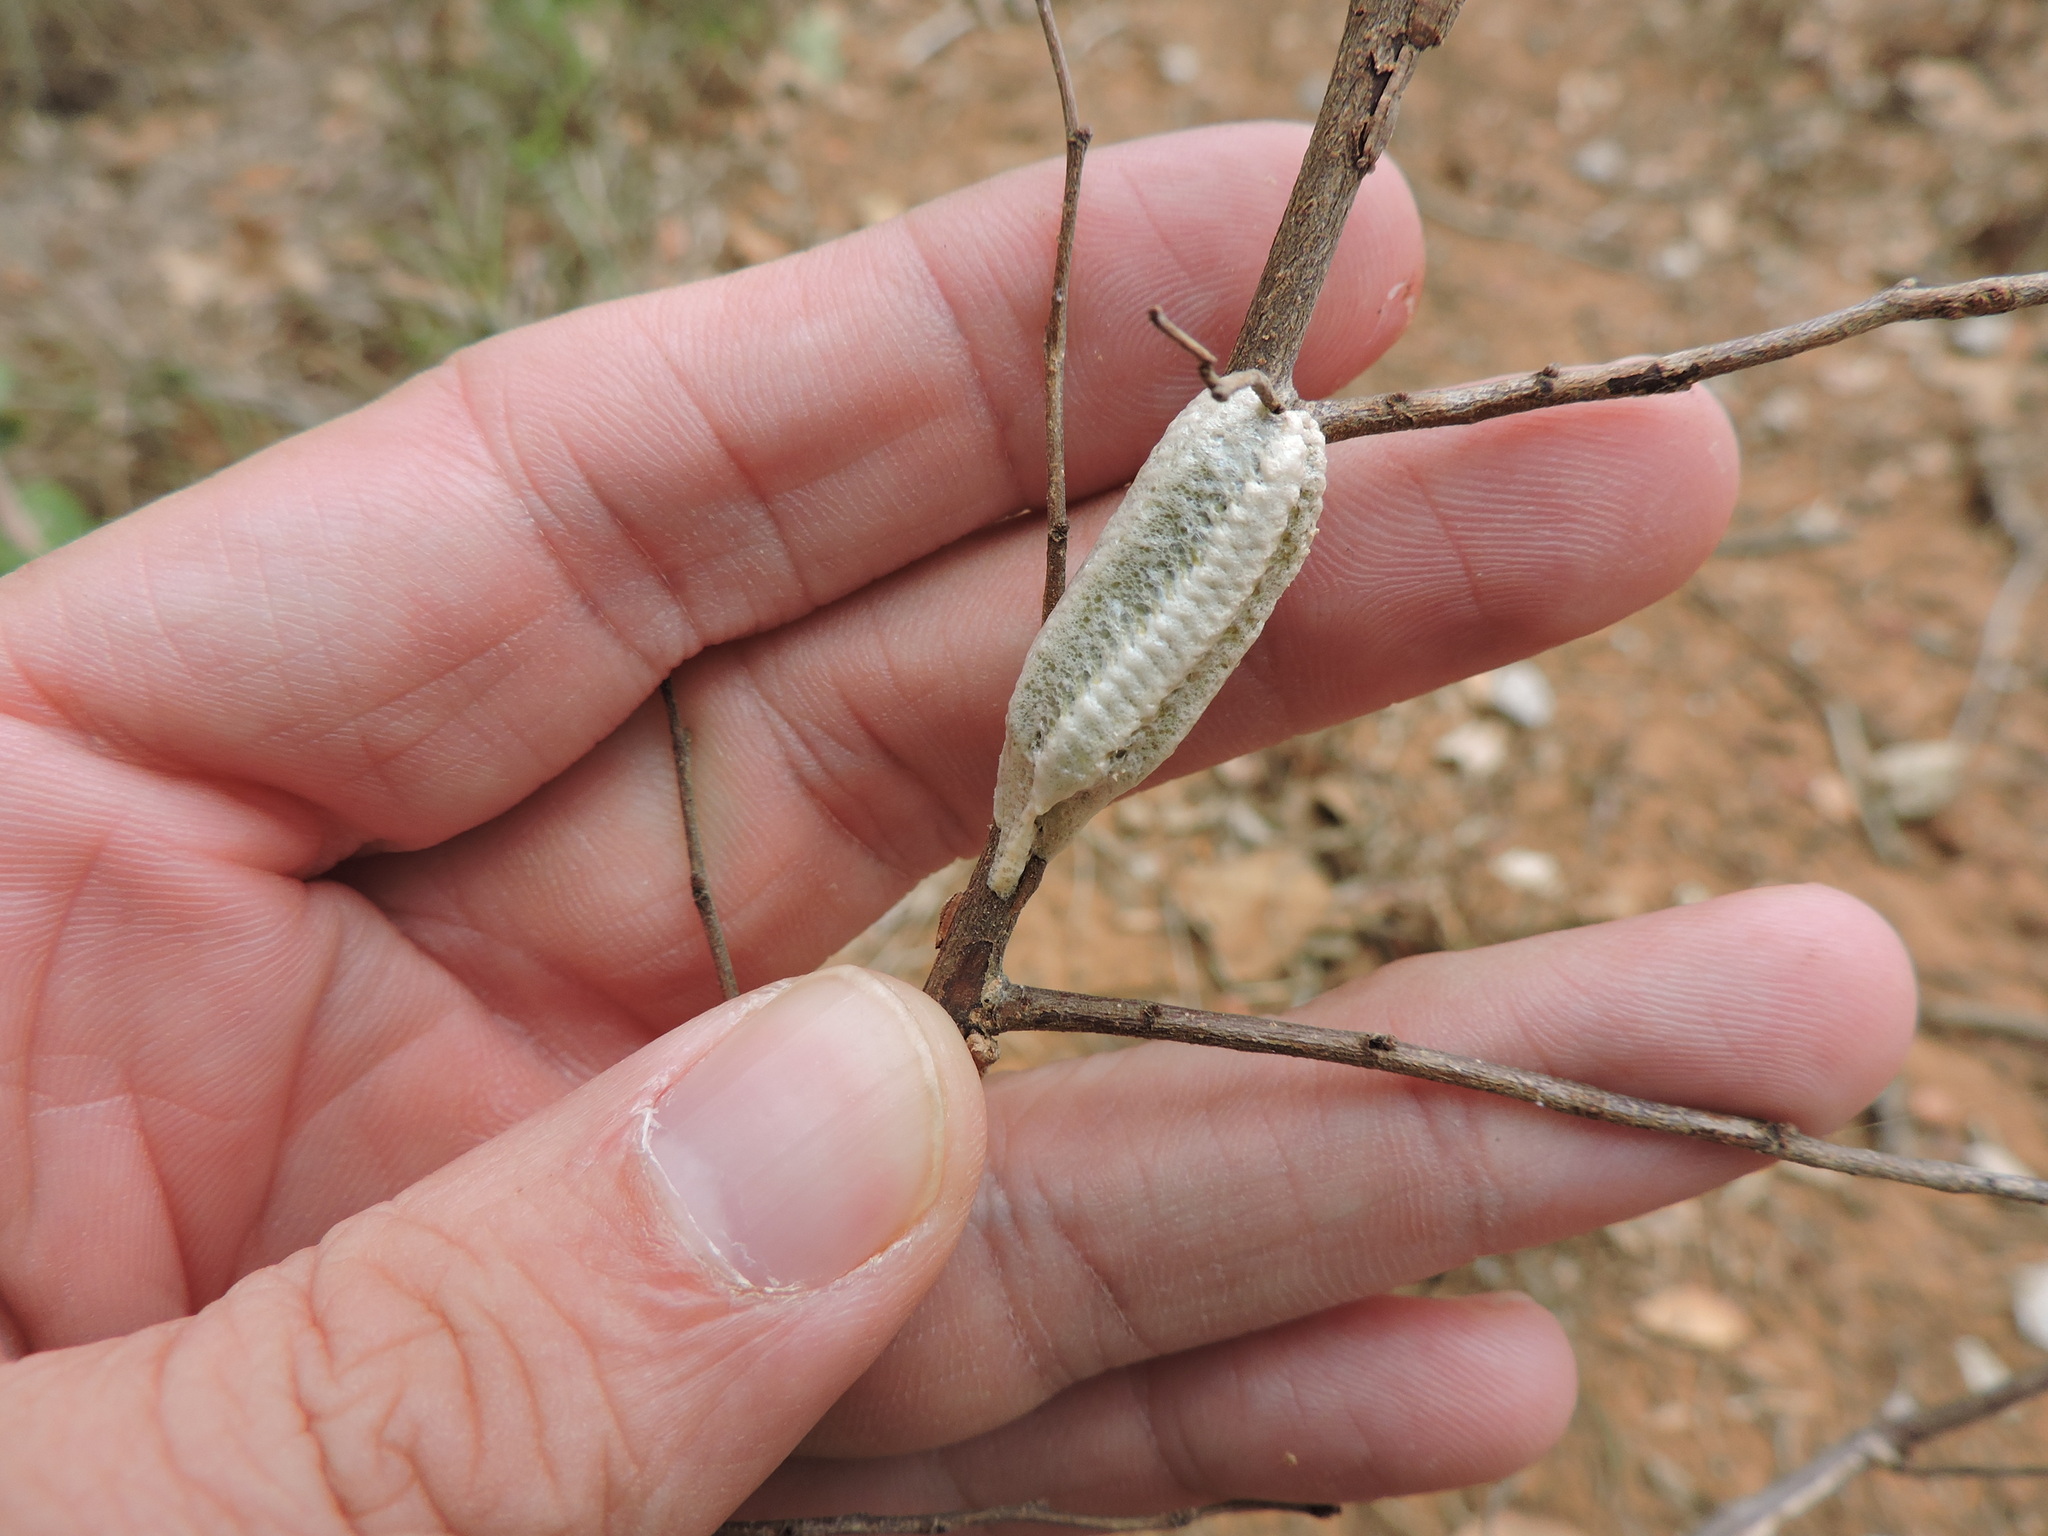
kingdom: Animalia
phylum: Arthropoda
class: Insecta
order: Mantodea
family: Mantidae
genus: Stagmomantis
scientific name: Stagmomantis carolina
